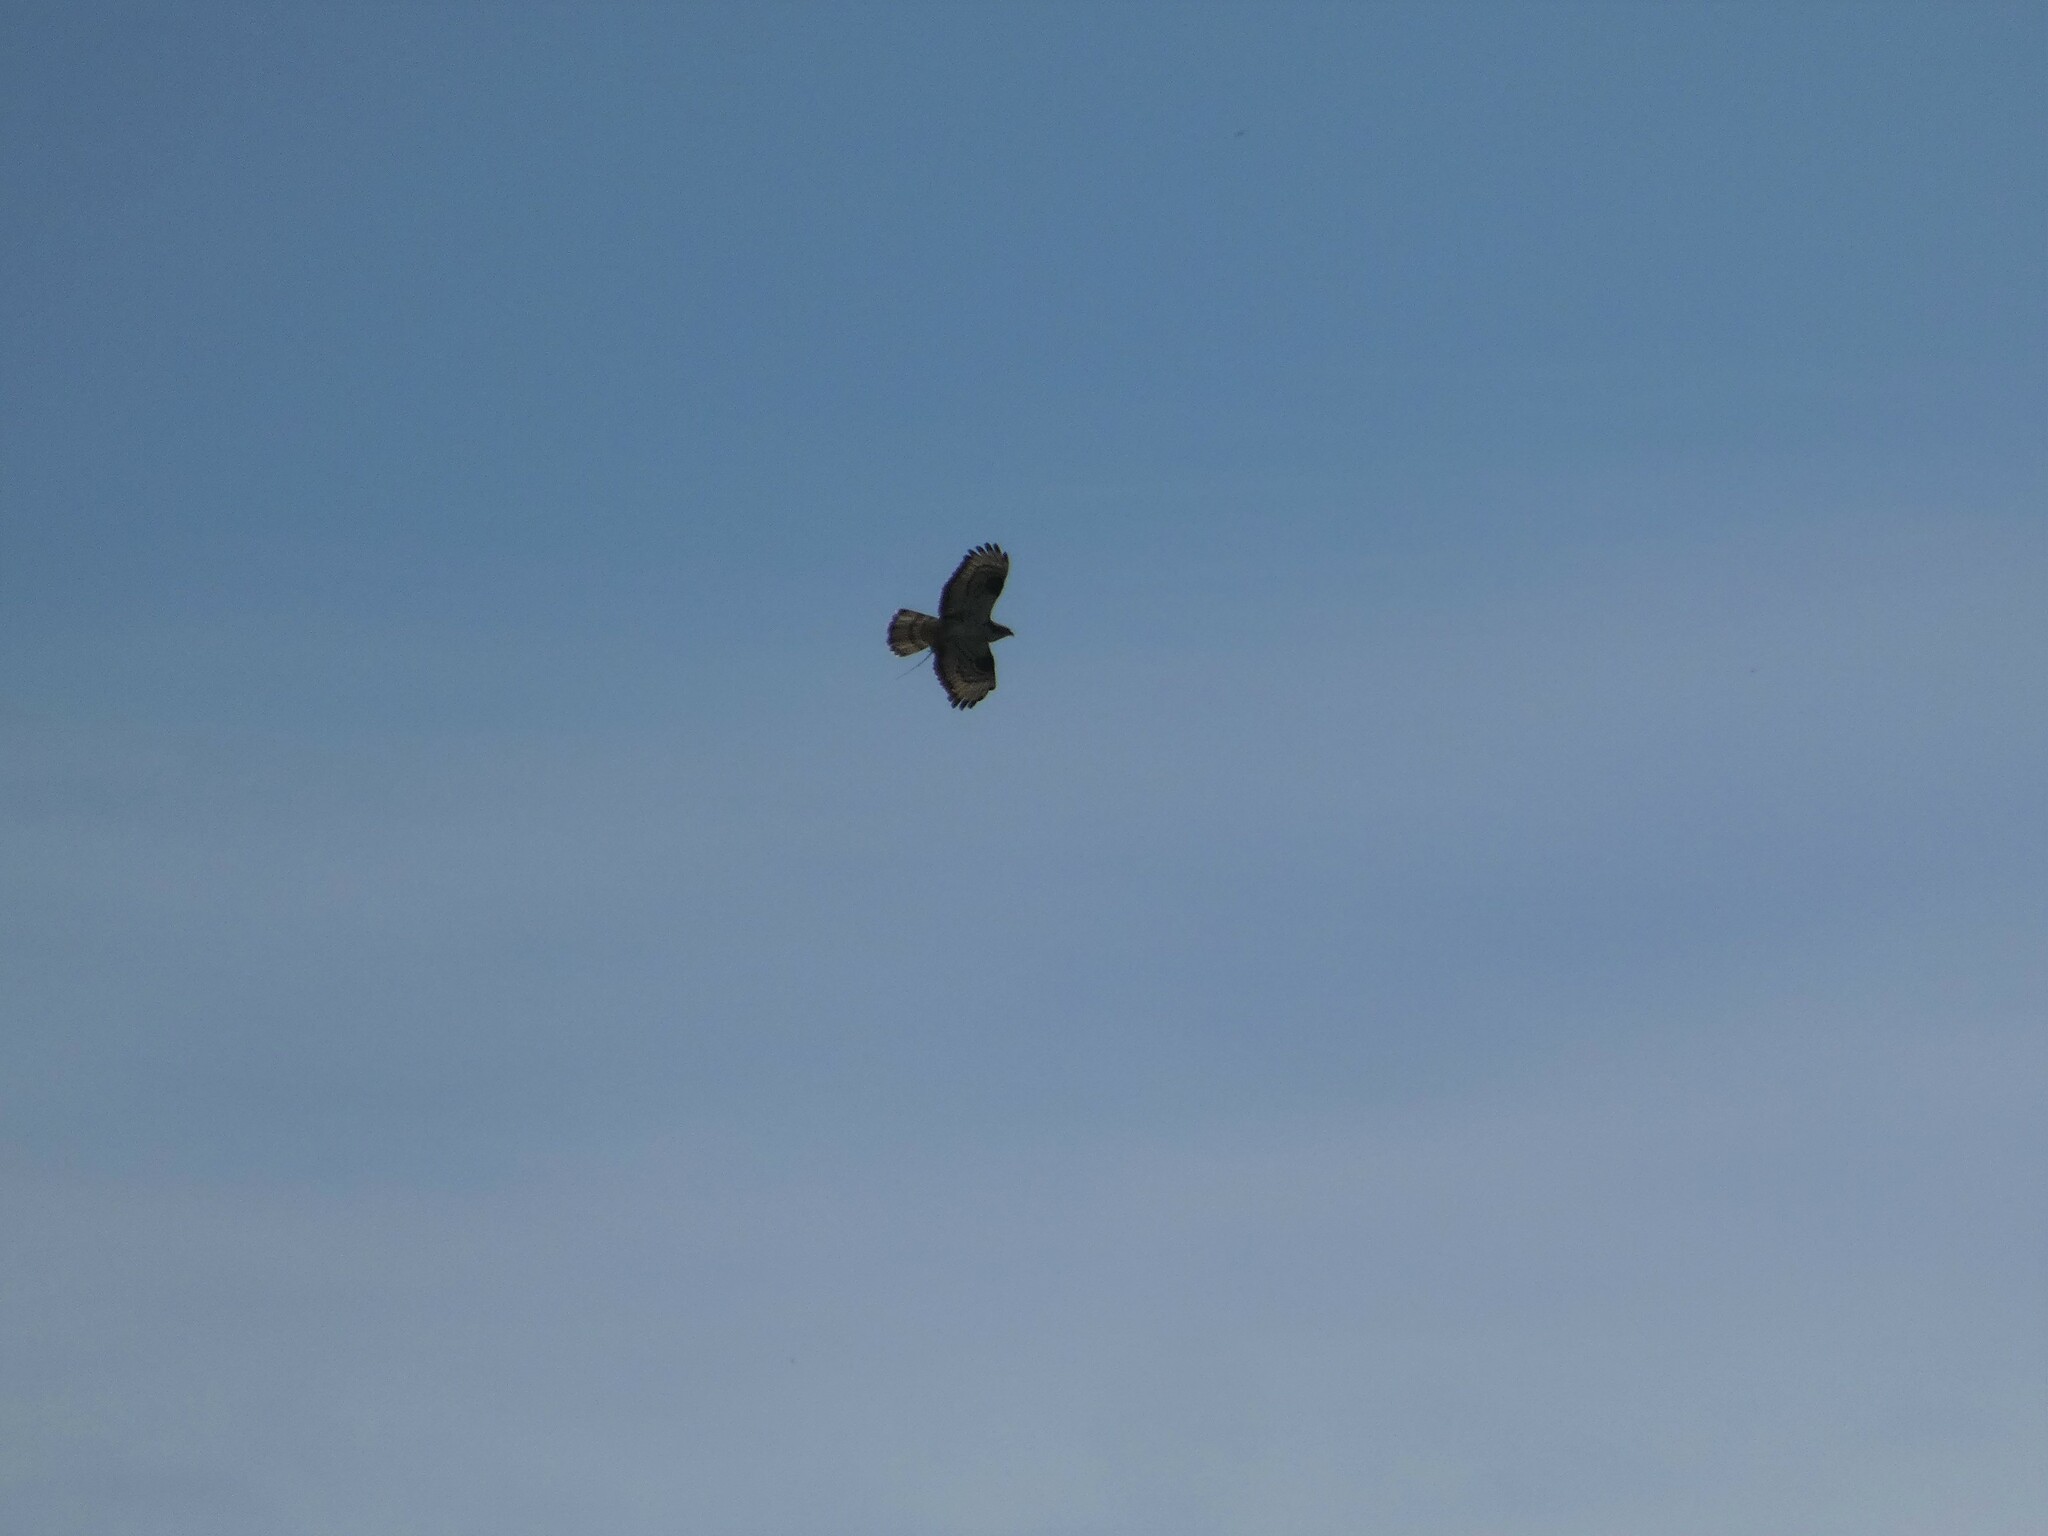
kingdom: Animalia
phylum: Chordata
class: Aves
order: Accipitriformes
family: Accipitridae
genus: Pernis
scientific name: Pernis apivorus
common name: European honey buzzard
